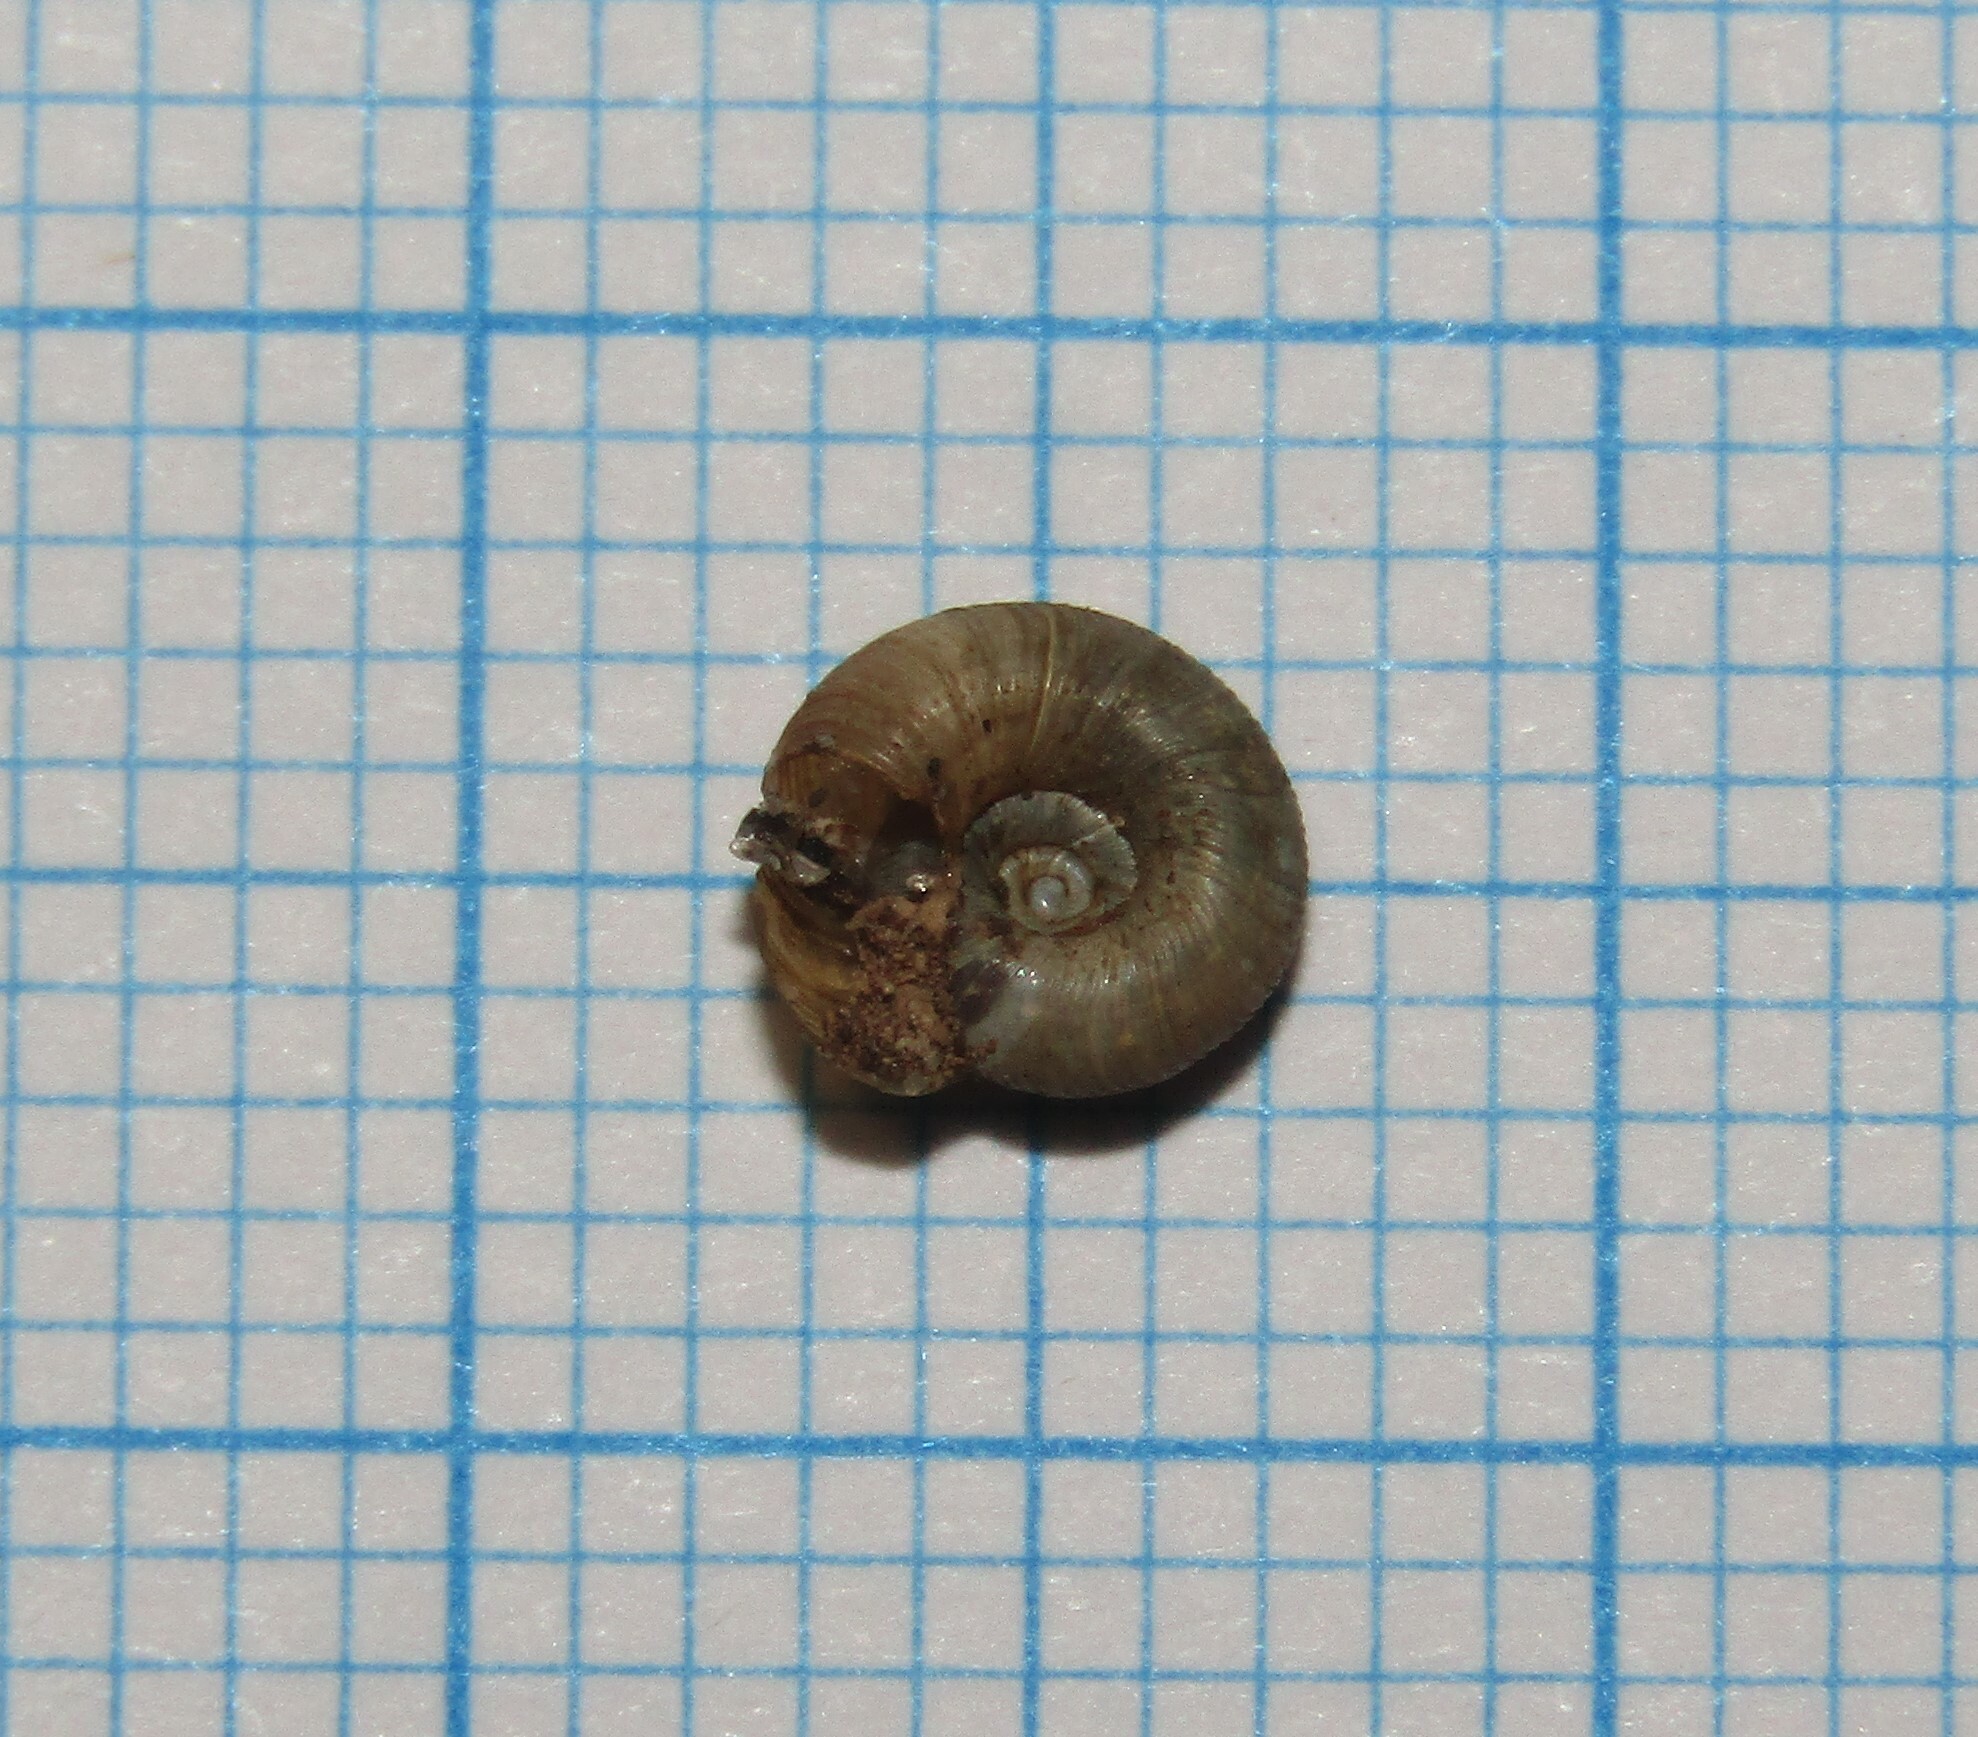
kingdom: Animalia
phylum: Mollusca
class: Gastropoda
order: Stylommatophora
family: Discidae
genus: Discus
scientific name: Discus ruderatus
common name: Brown disc snail
